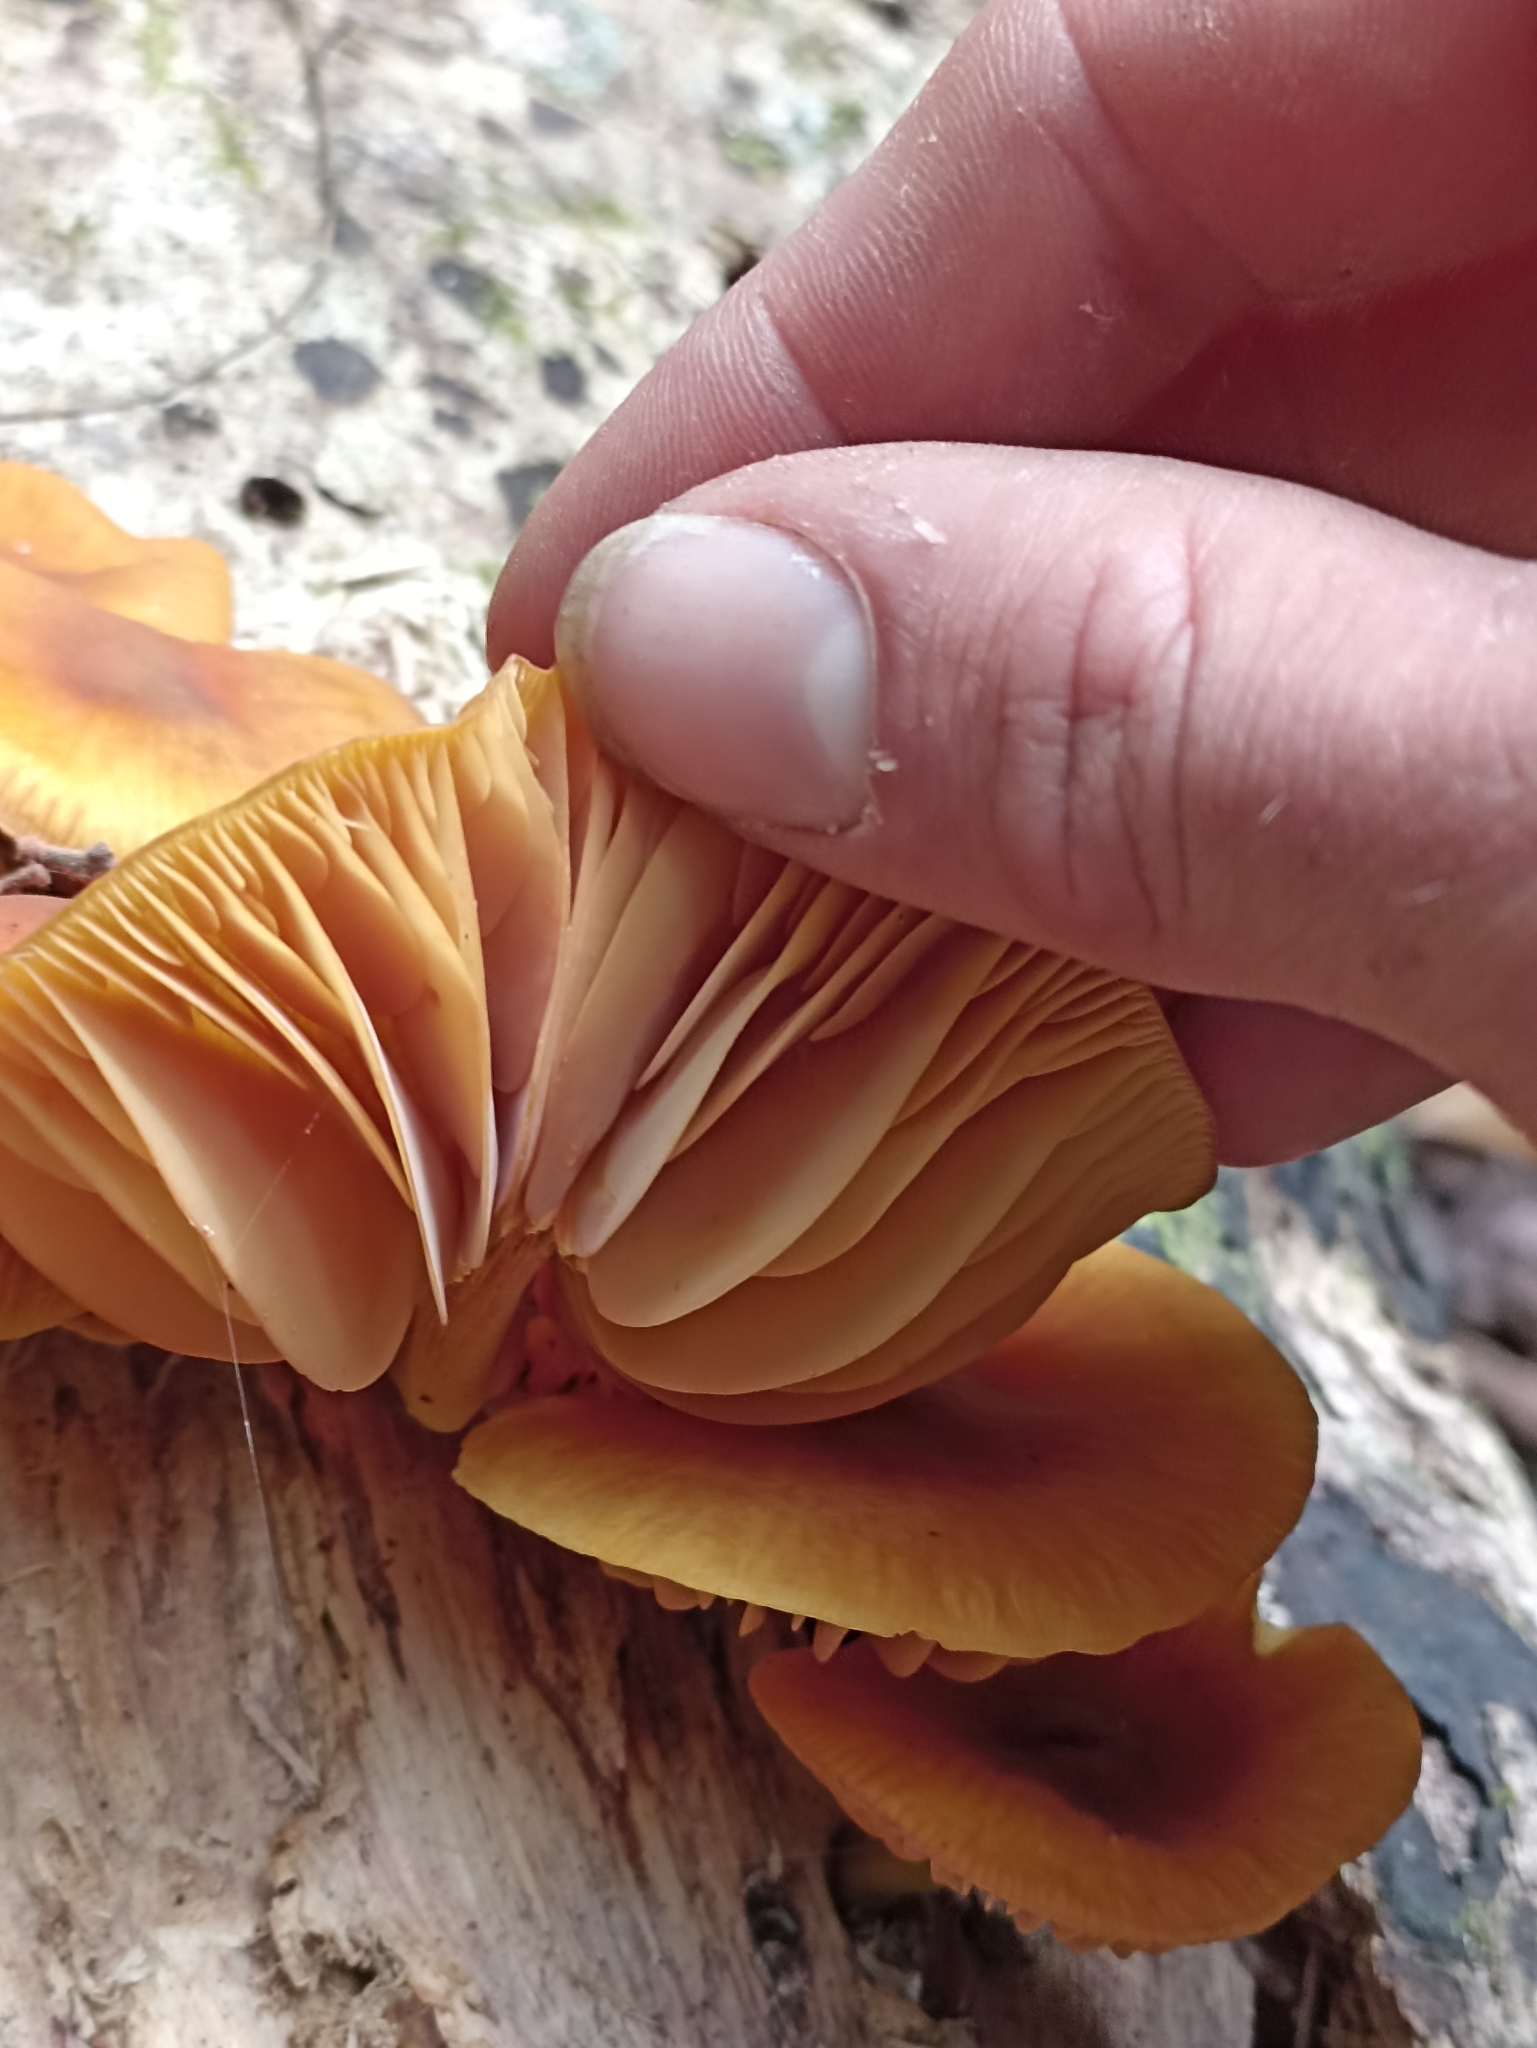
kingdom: Fungi
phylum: Basidiomycota
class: Agaricomycetes
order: Agaricales
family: Mycenaceae
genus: Heimiomyces
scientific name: Heimiomyces velutipes
